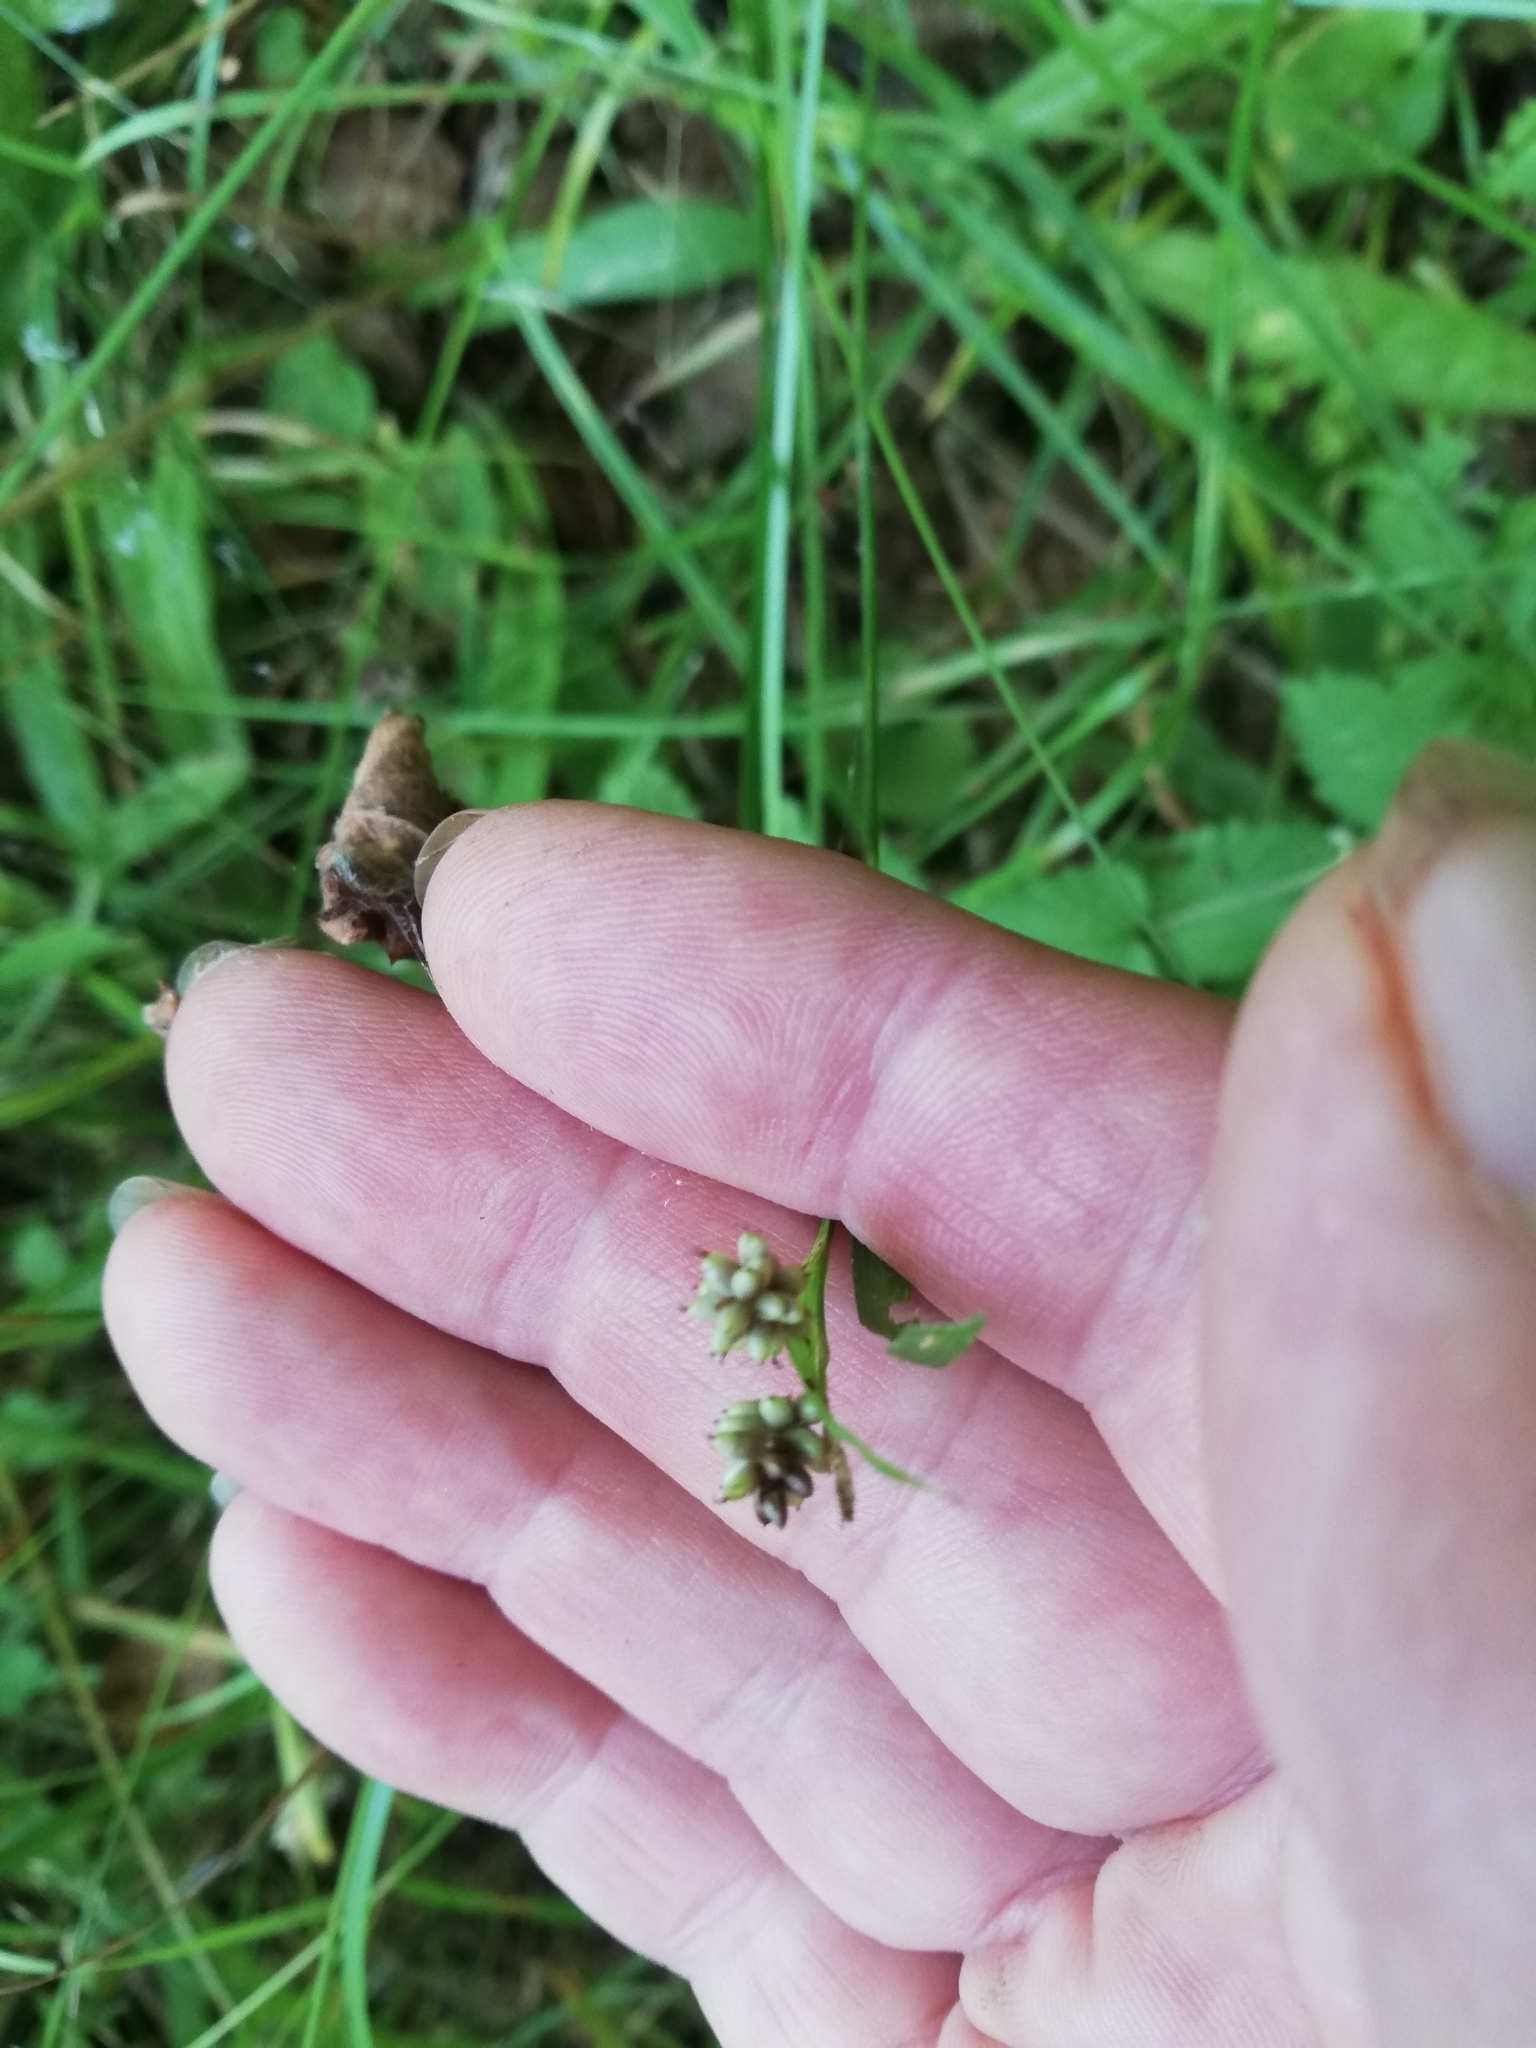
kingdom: Plantae
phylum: Tracheophyta
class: Liliopsida
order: Poales
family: Cyperaceae
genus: Carex
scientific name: Carex pallescens
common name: Pale sedge
